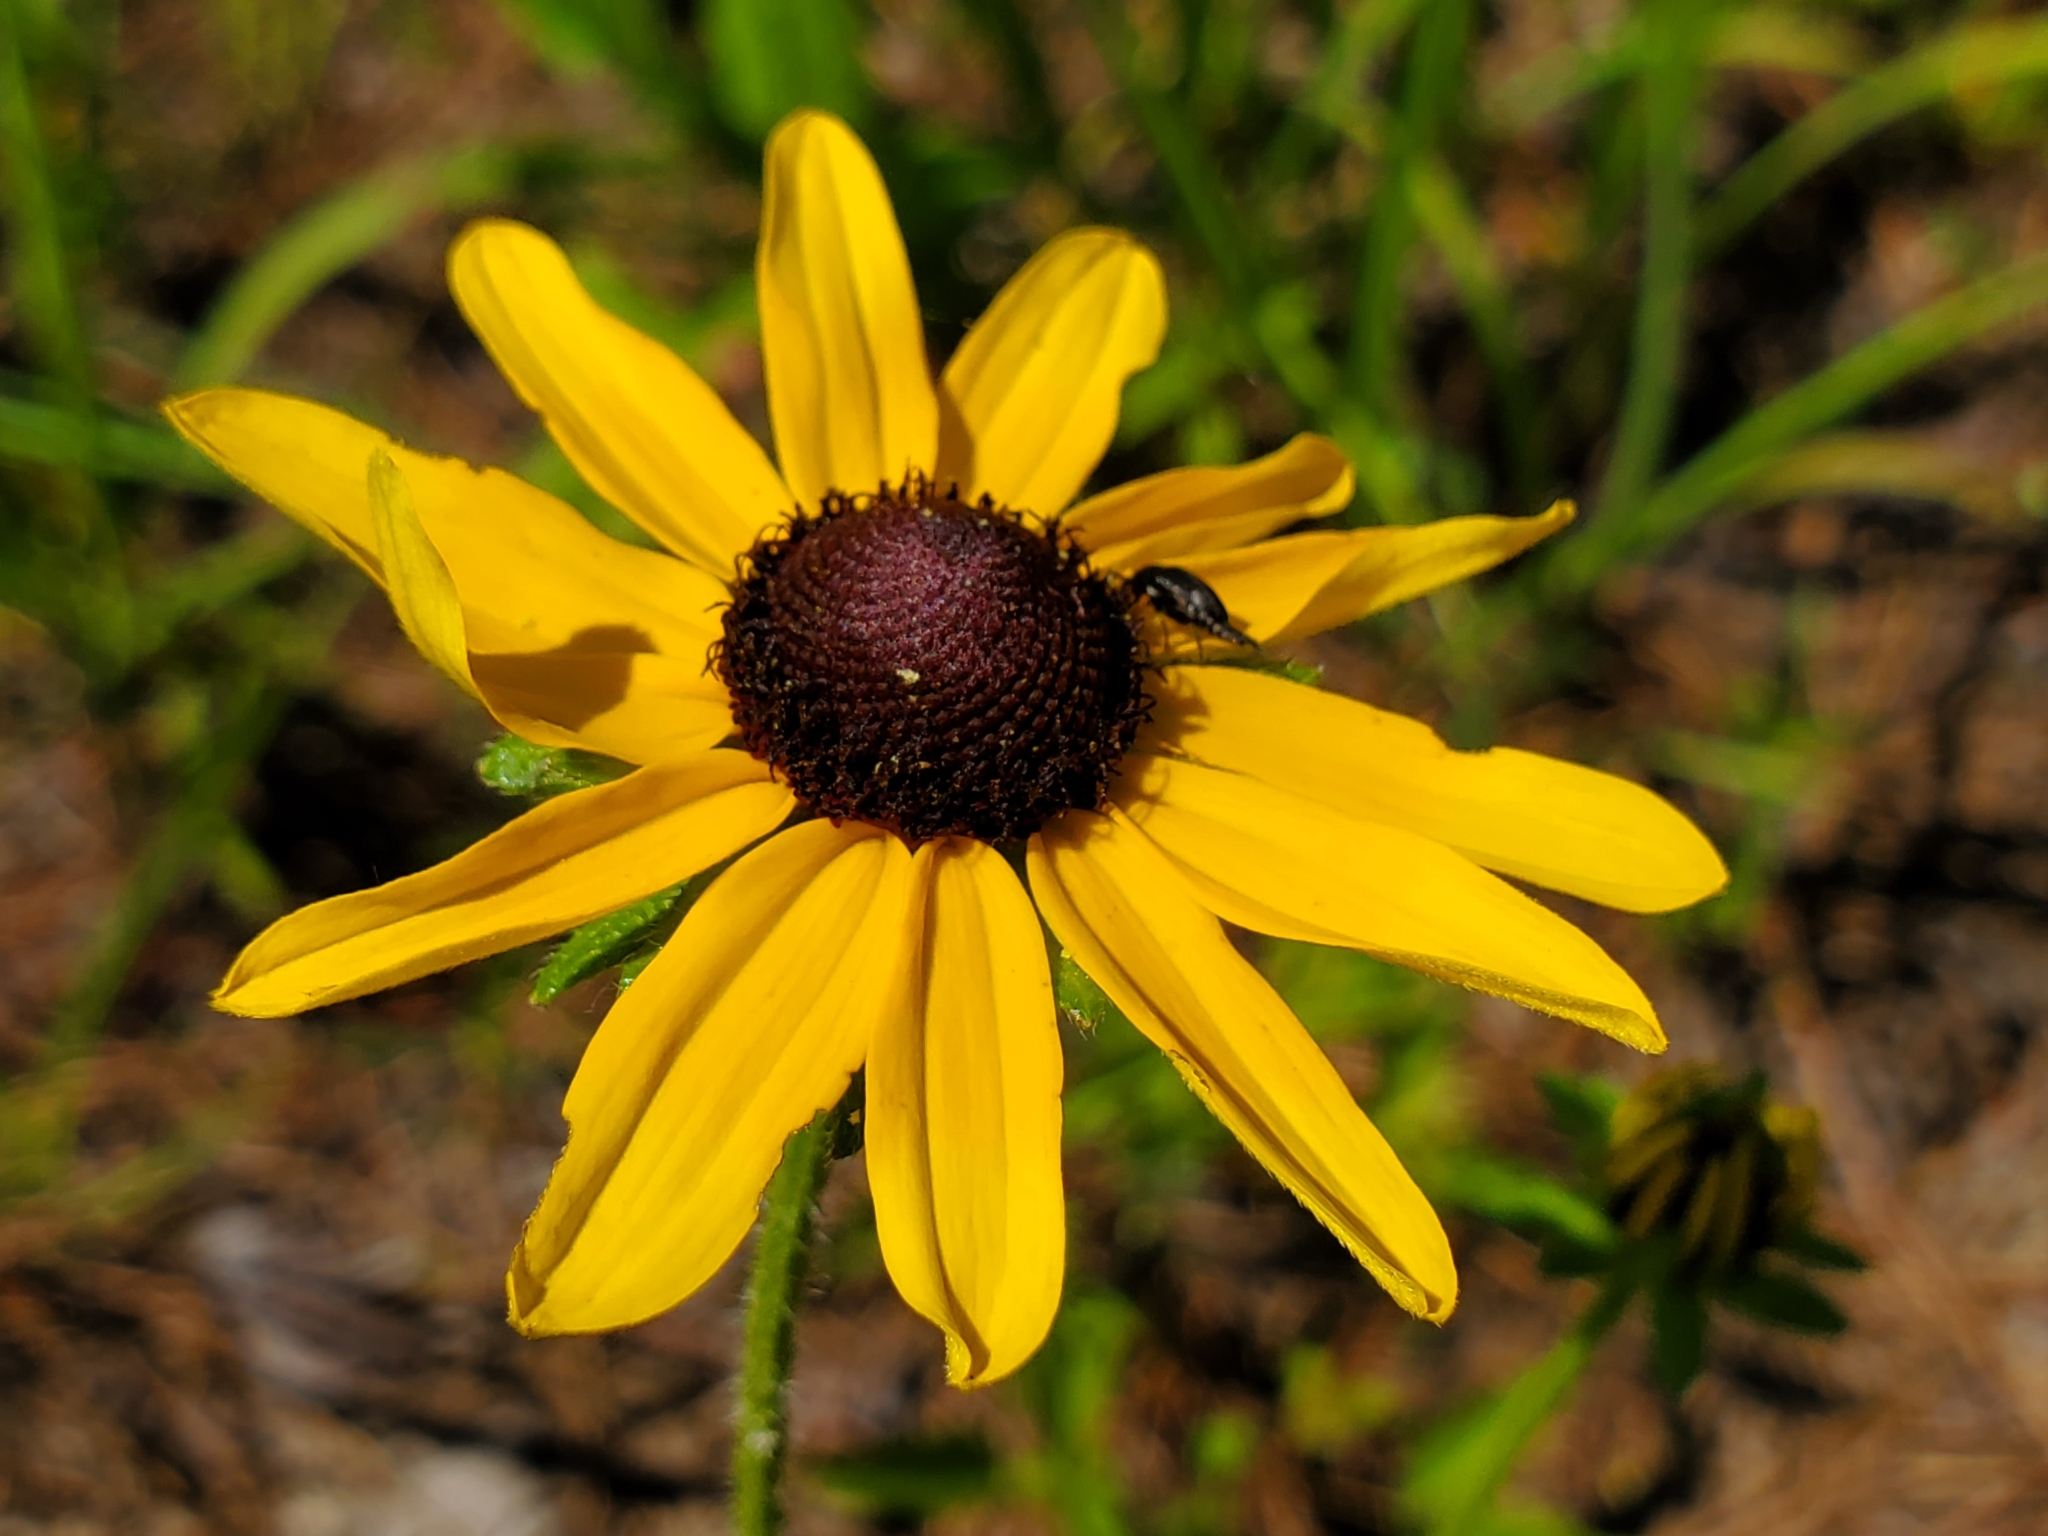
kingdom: Plantae
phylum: Tracheophyta
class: Magnoliopsida
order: Asterales
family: Asteraceae
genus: Rudbeckia
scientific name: Rudbeckia hirta
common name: Black-eyed-susan
